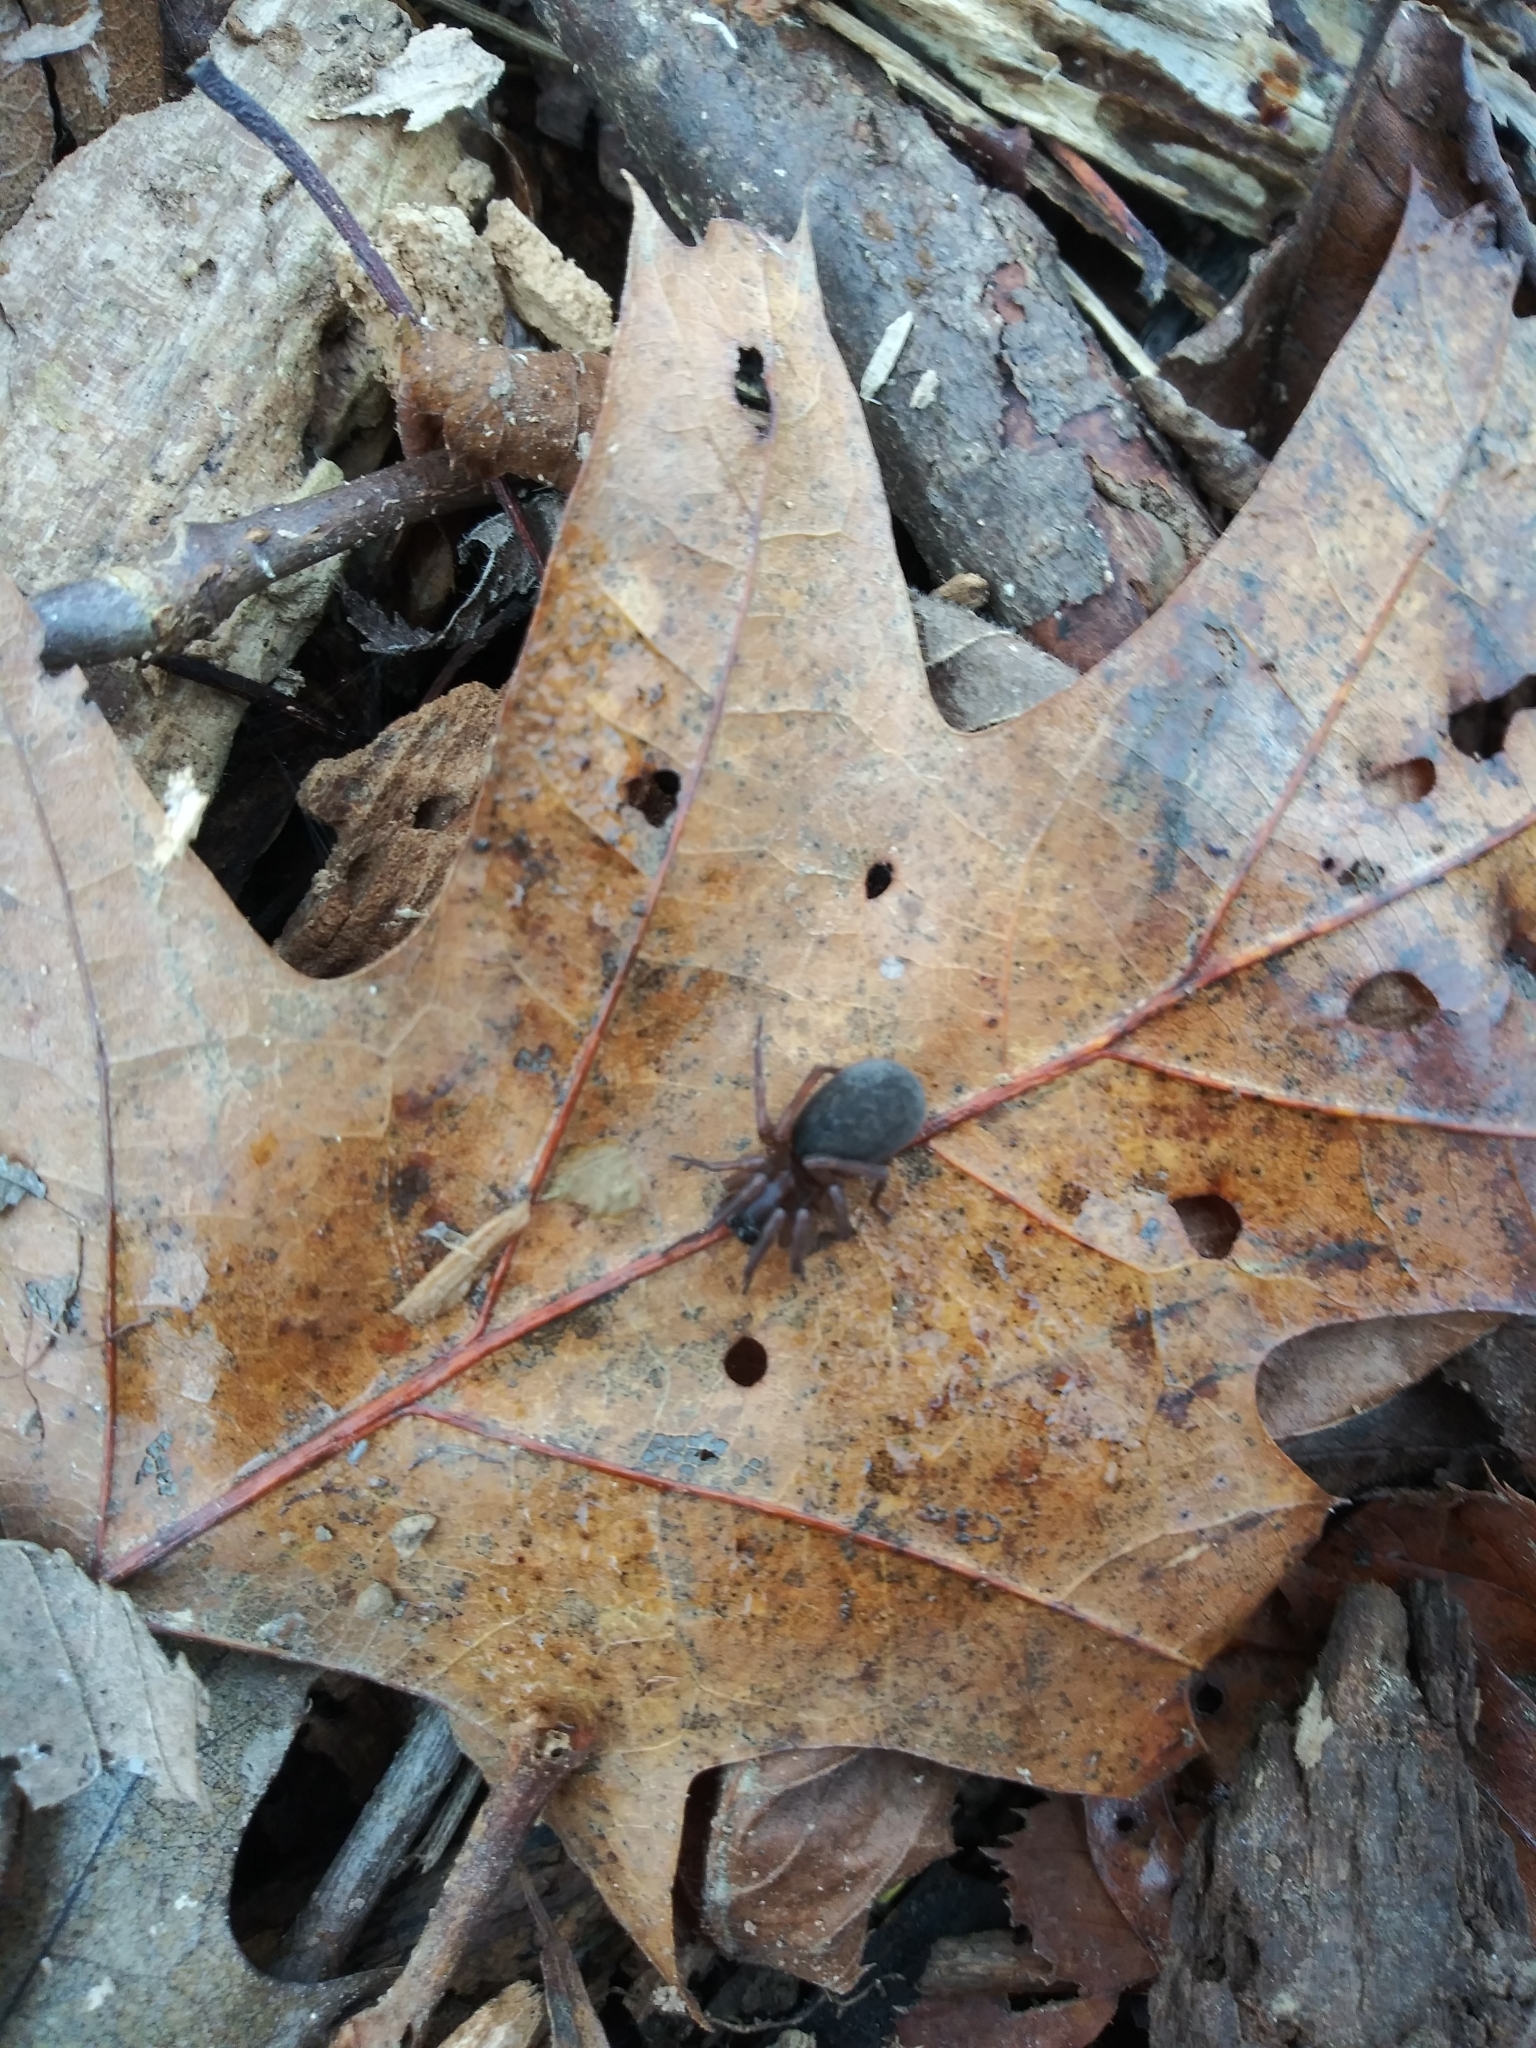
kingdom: Animalia
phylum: Arthropoda
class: Arachnida
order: Araneae
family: Agelenidae
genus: Wadotes
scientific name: Wadotes
